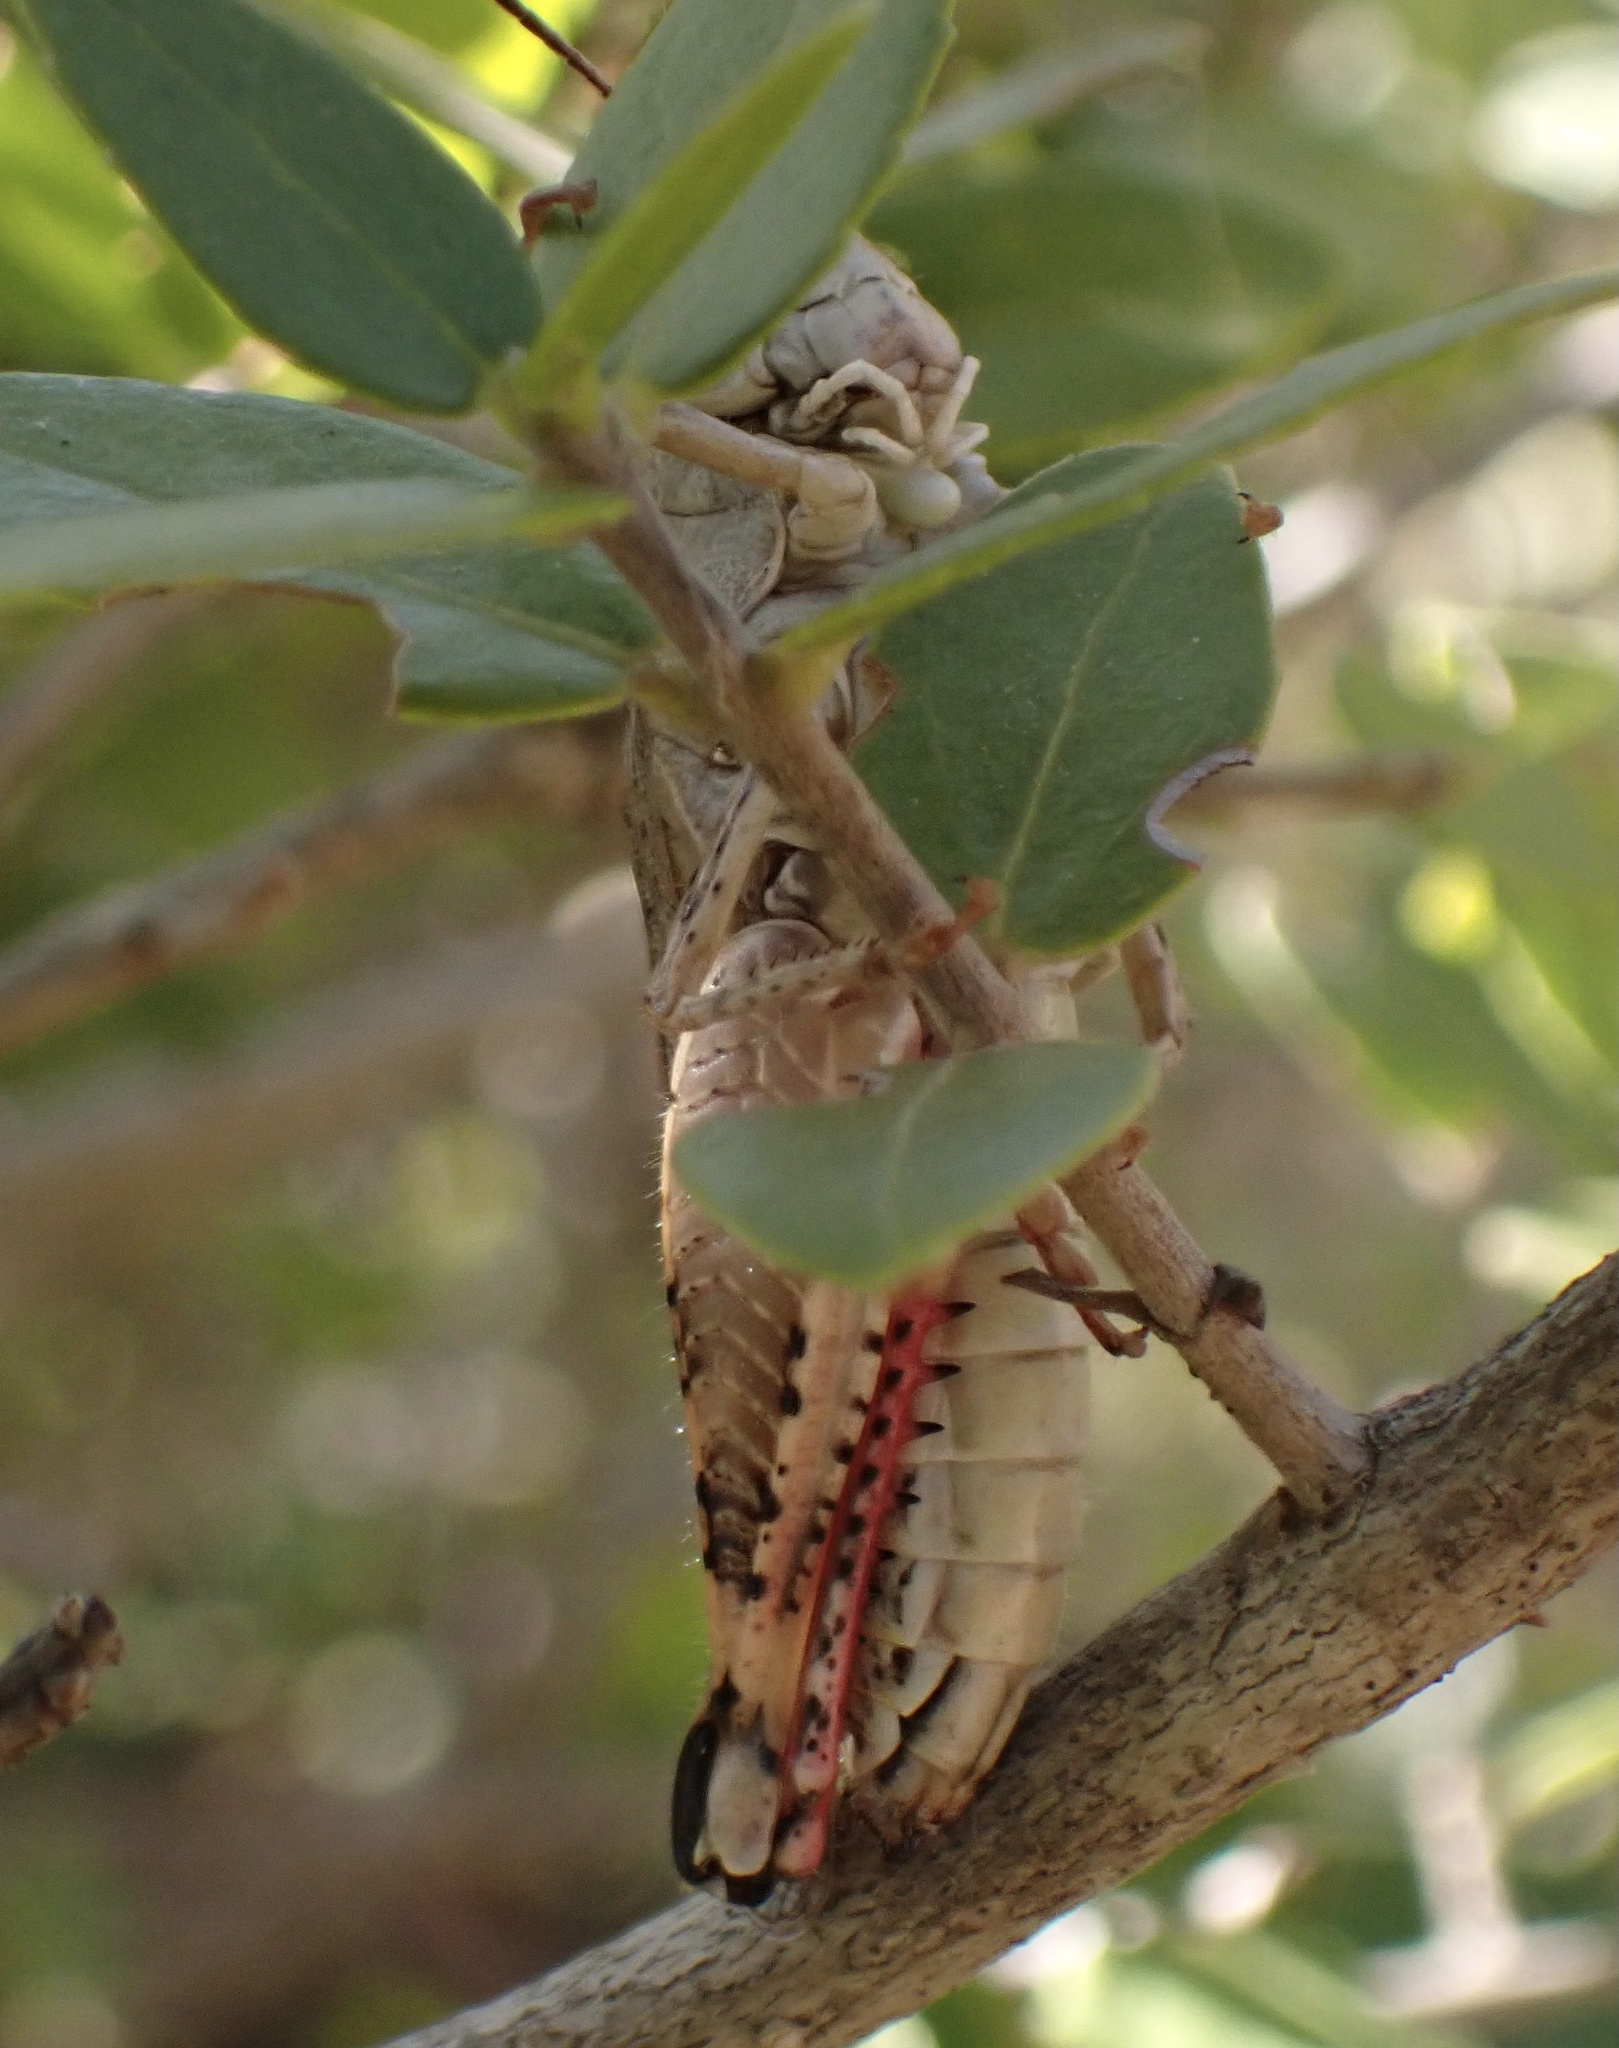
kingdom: Animalia
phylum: Arthropoda
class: Insecta
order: Orthoptera
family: Acrididae
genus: Calliptamus
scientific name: Calliptamus italicus
